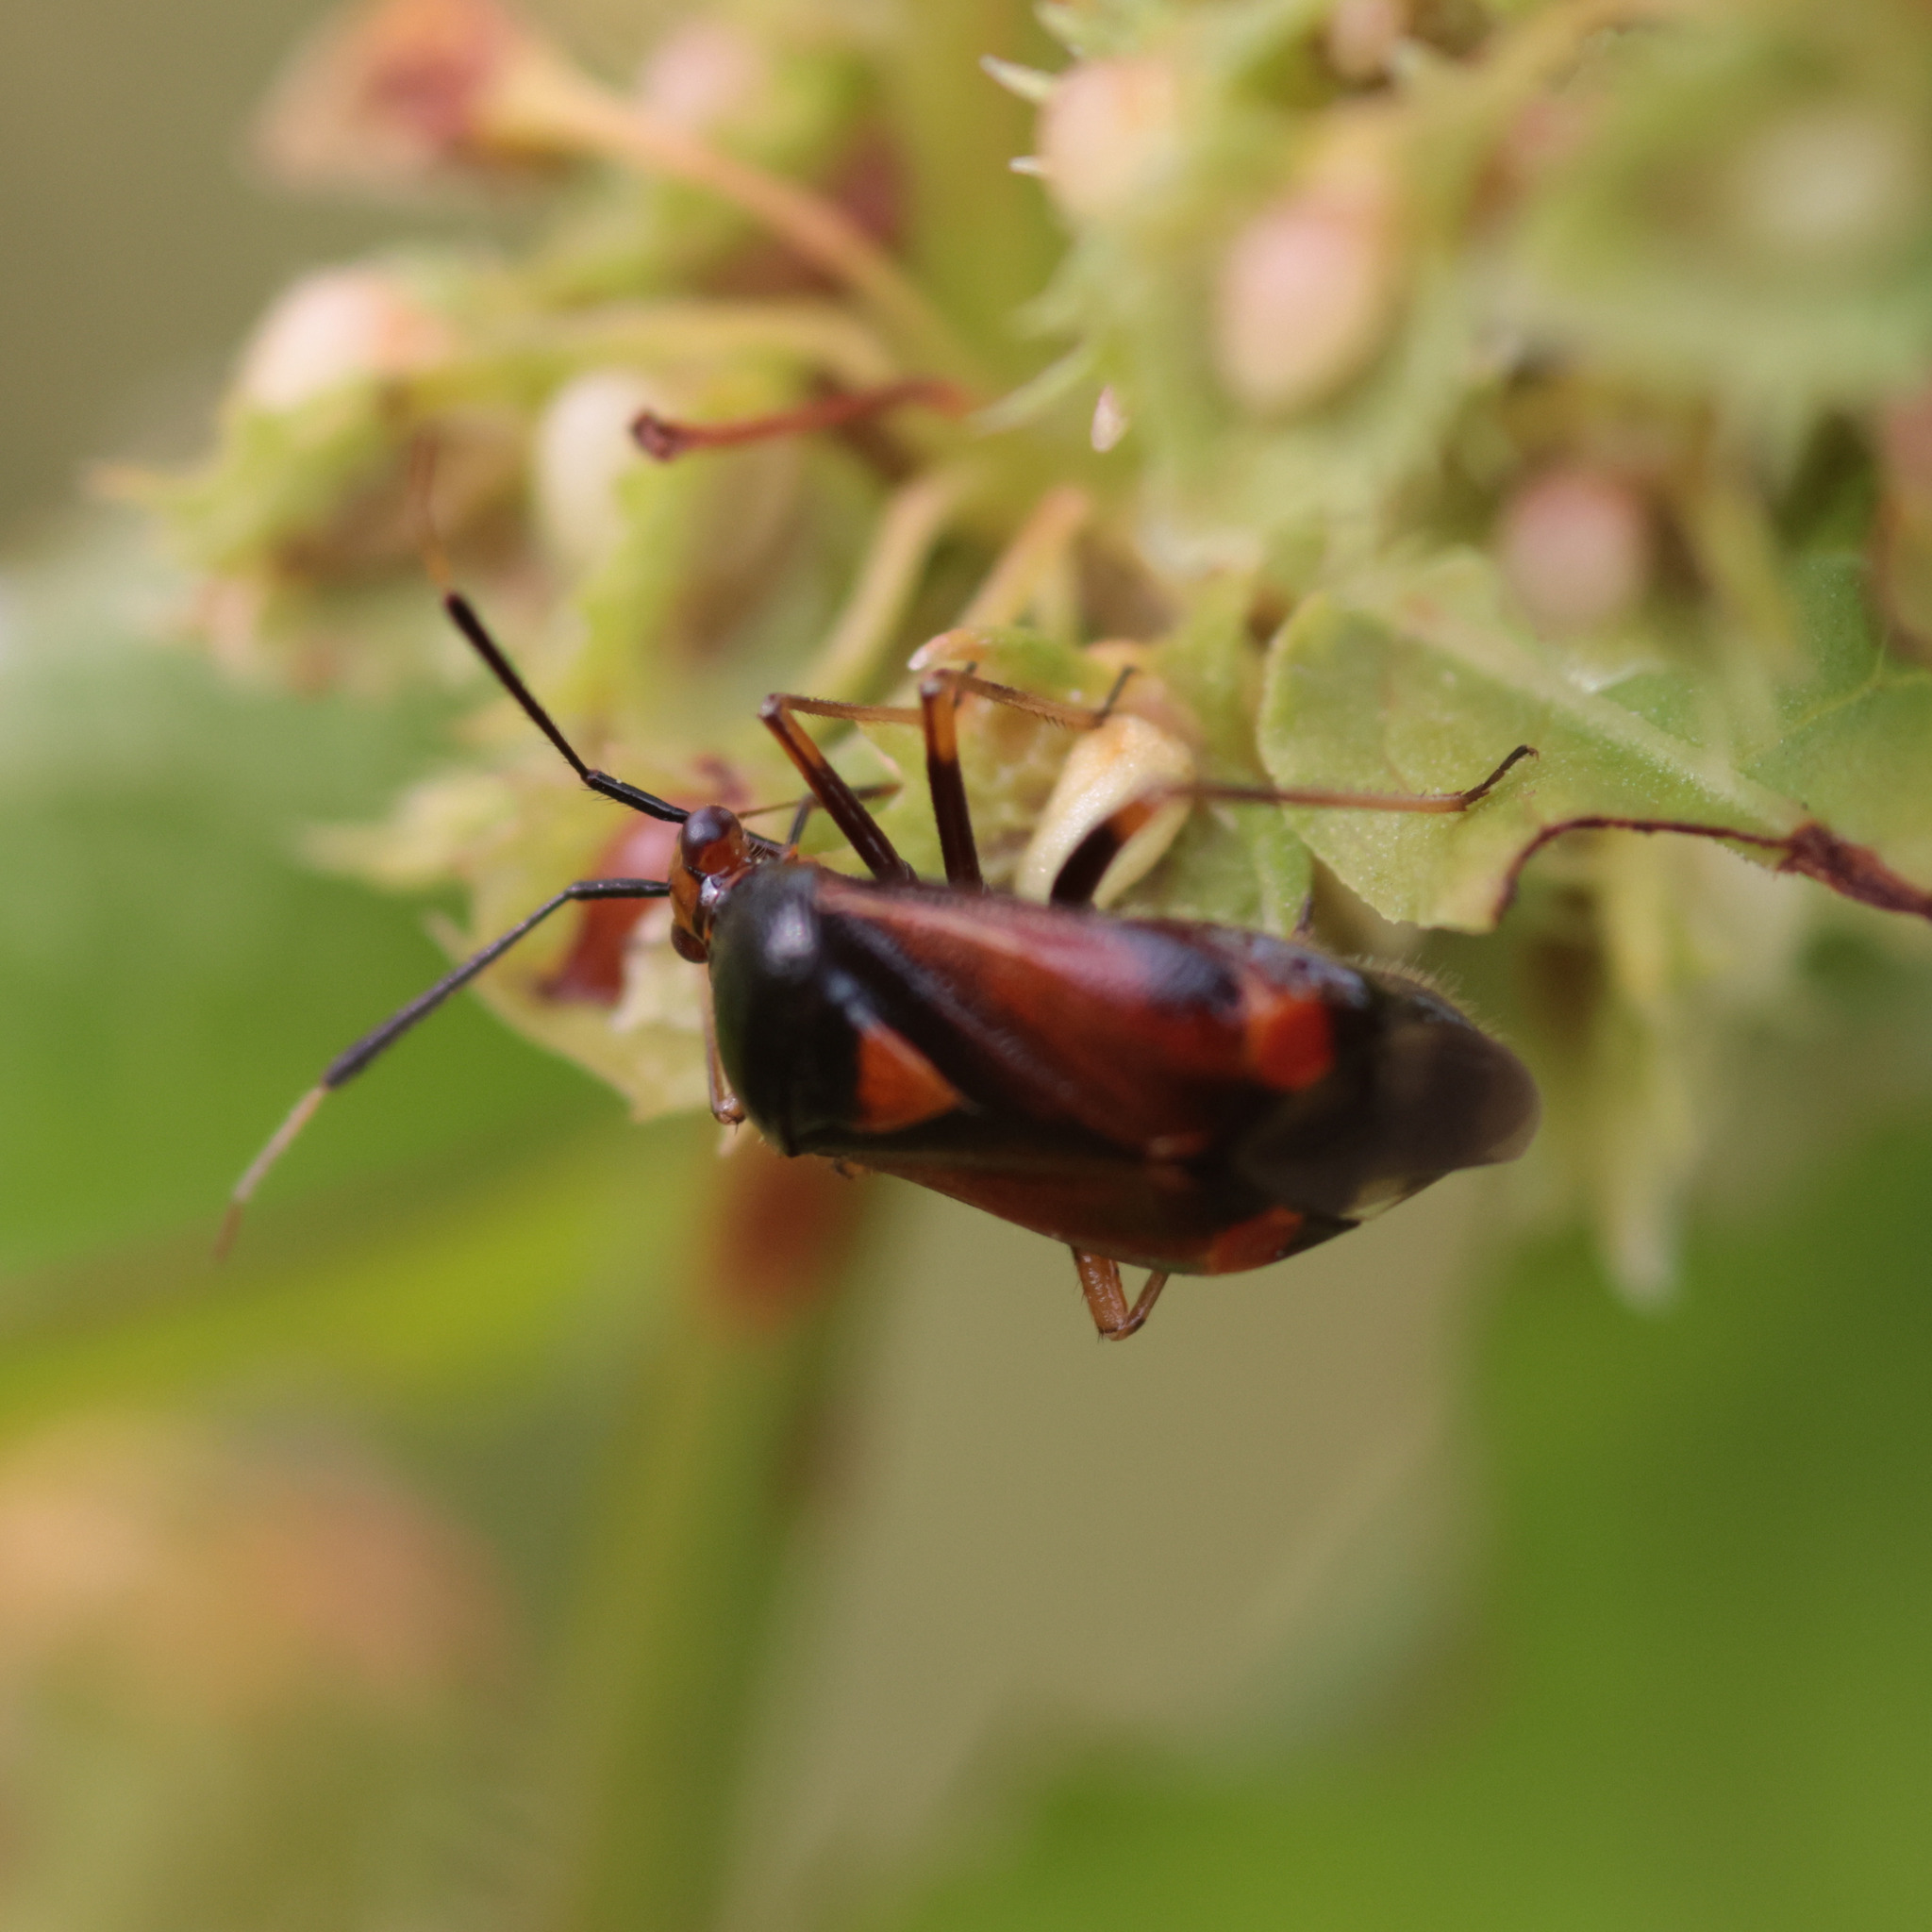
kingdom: Animalia
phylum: Arthropoda
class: Insecta
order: Hemiptera
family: Miridae
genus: Deraeocoris
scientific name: Deraeocoris ruber
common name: Plant bug
